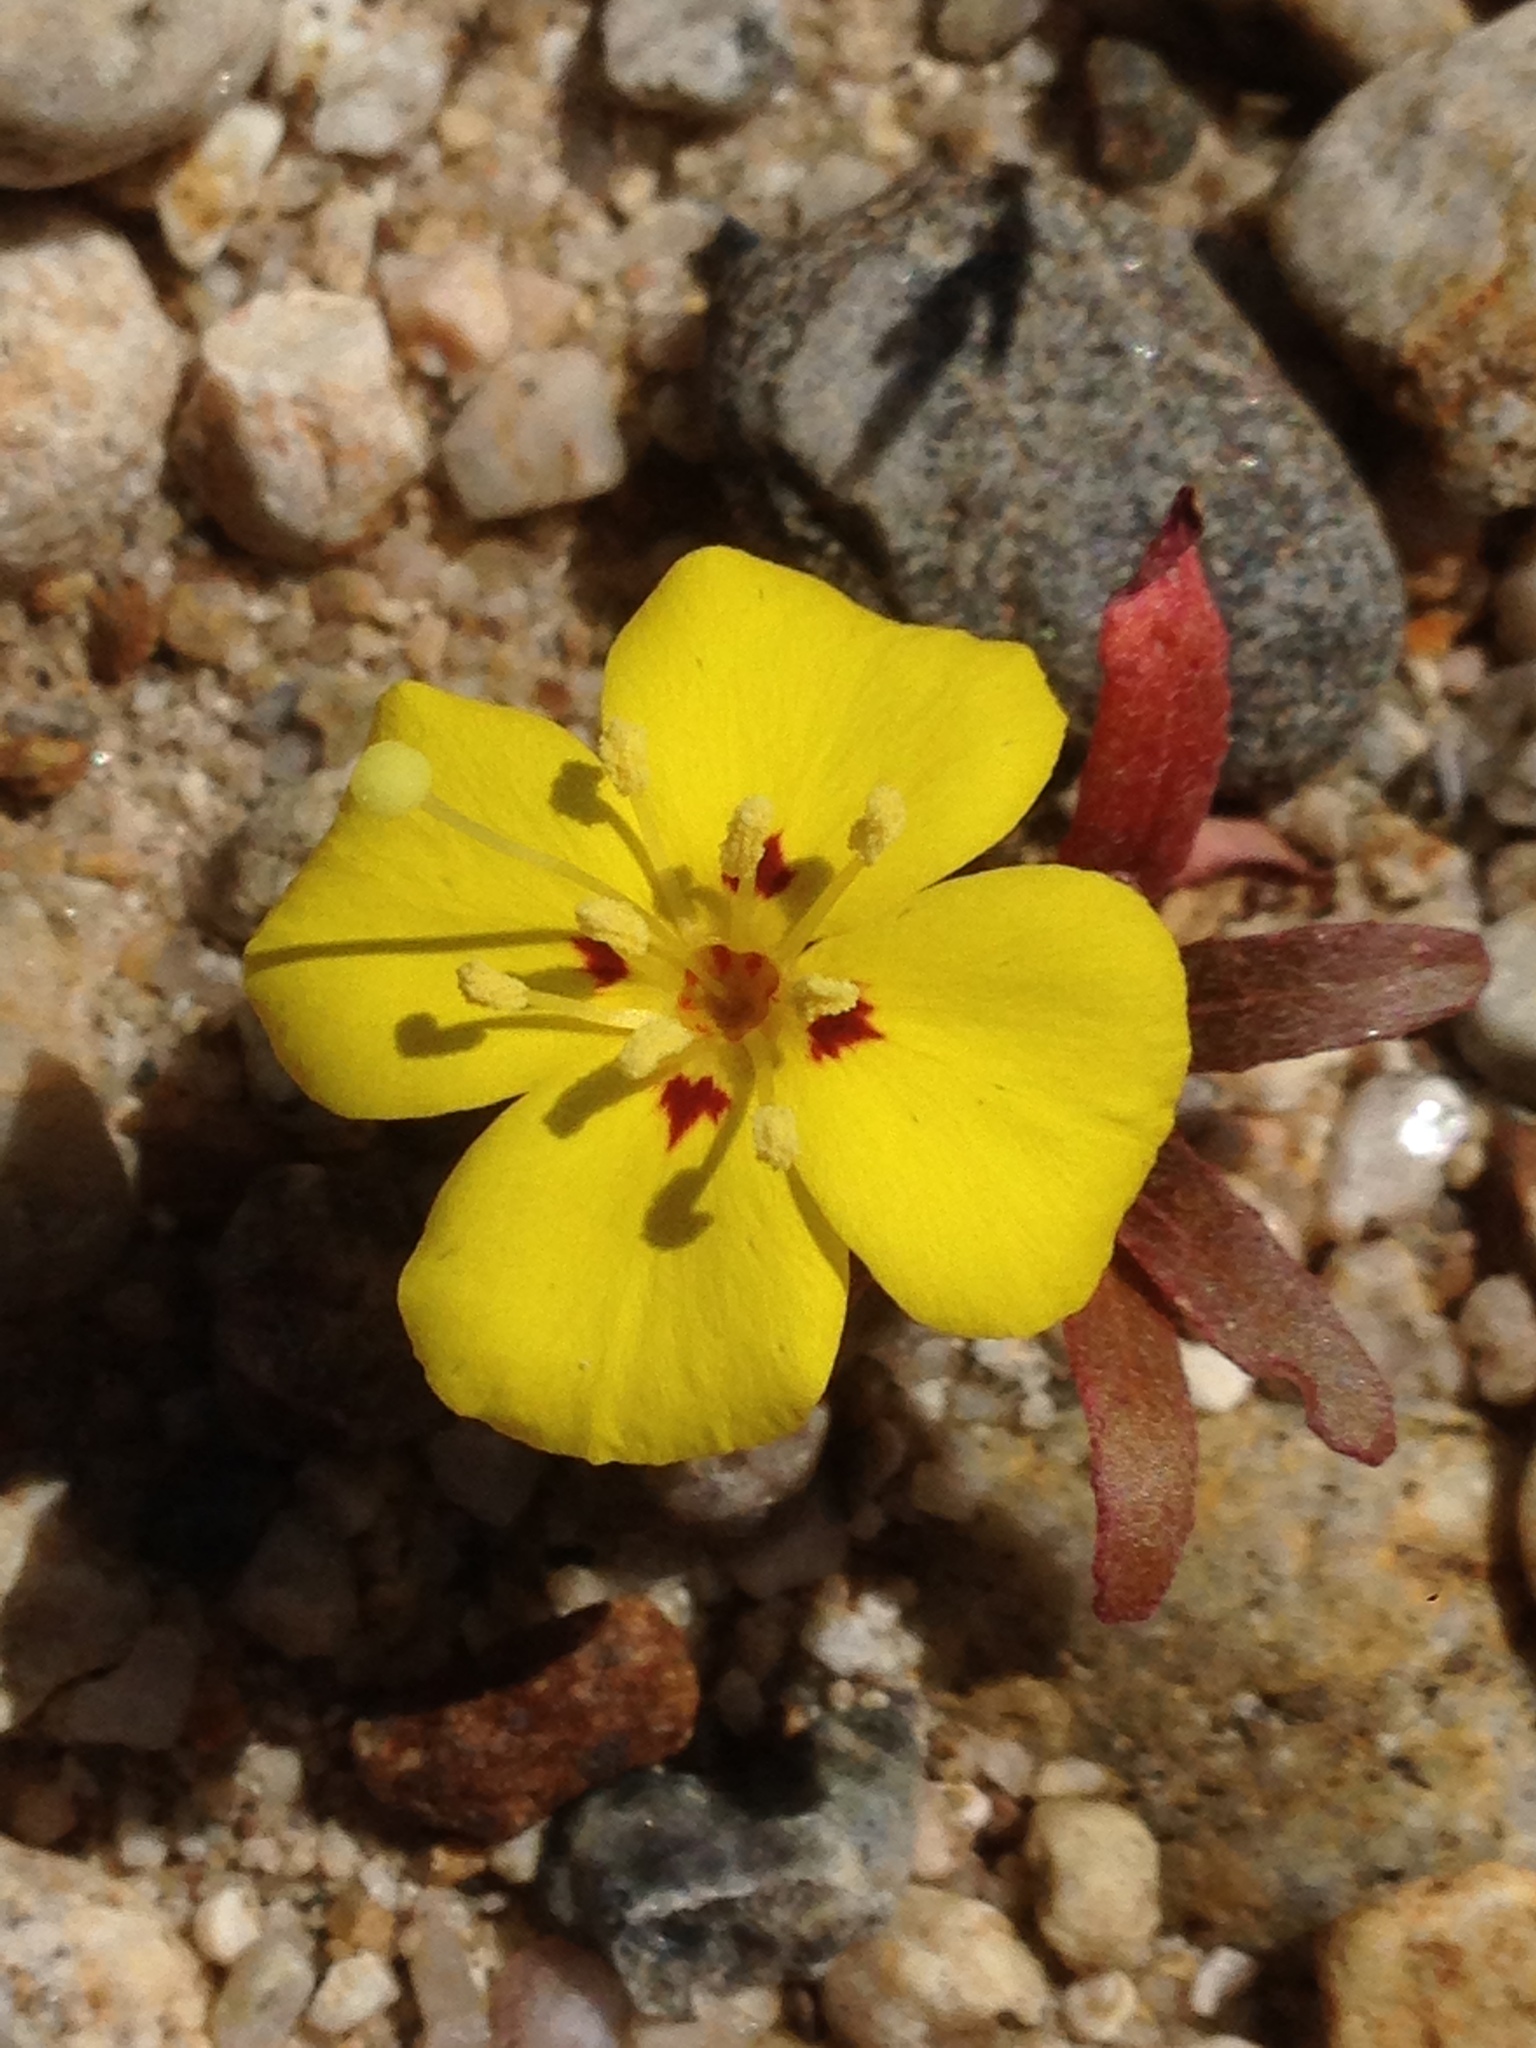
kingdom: Plantae
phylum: Tracheophyta
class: Magnoliopsida
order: Myrtales
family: Onagraceae
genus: Camissoniopsis
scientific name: Camissoniopsis bistorta
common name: Southern suncup
